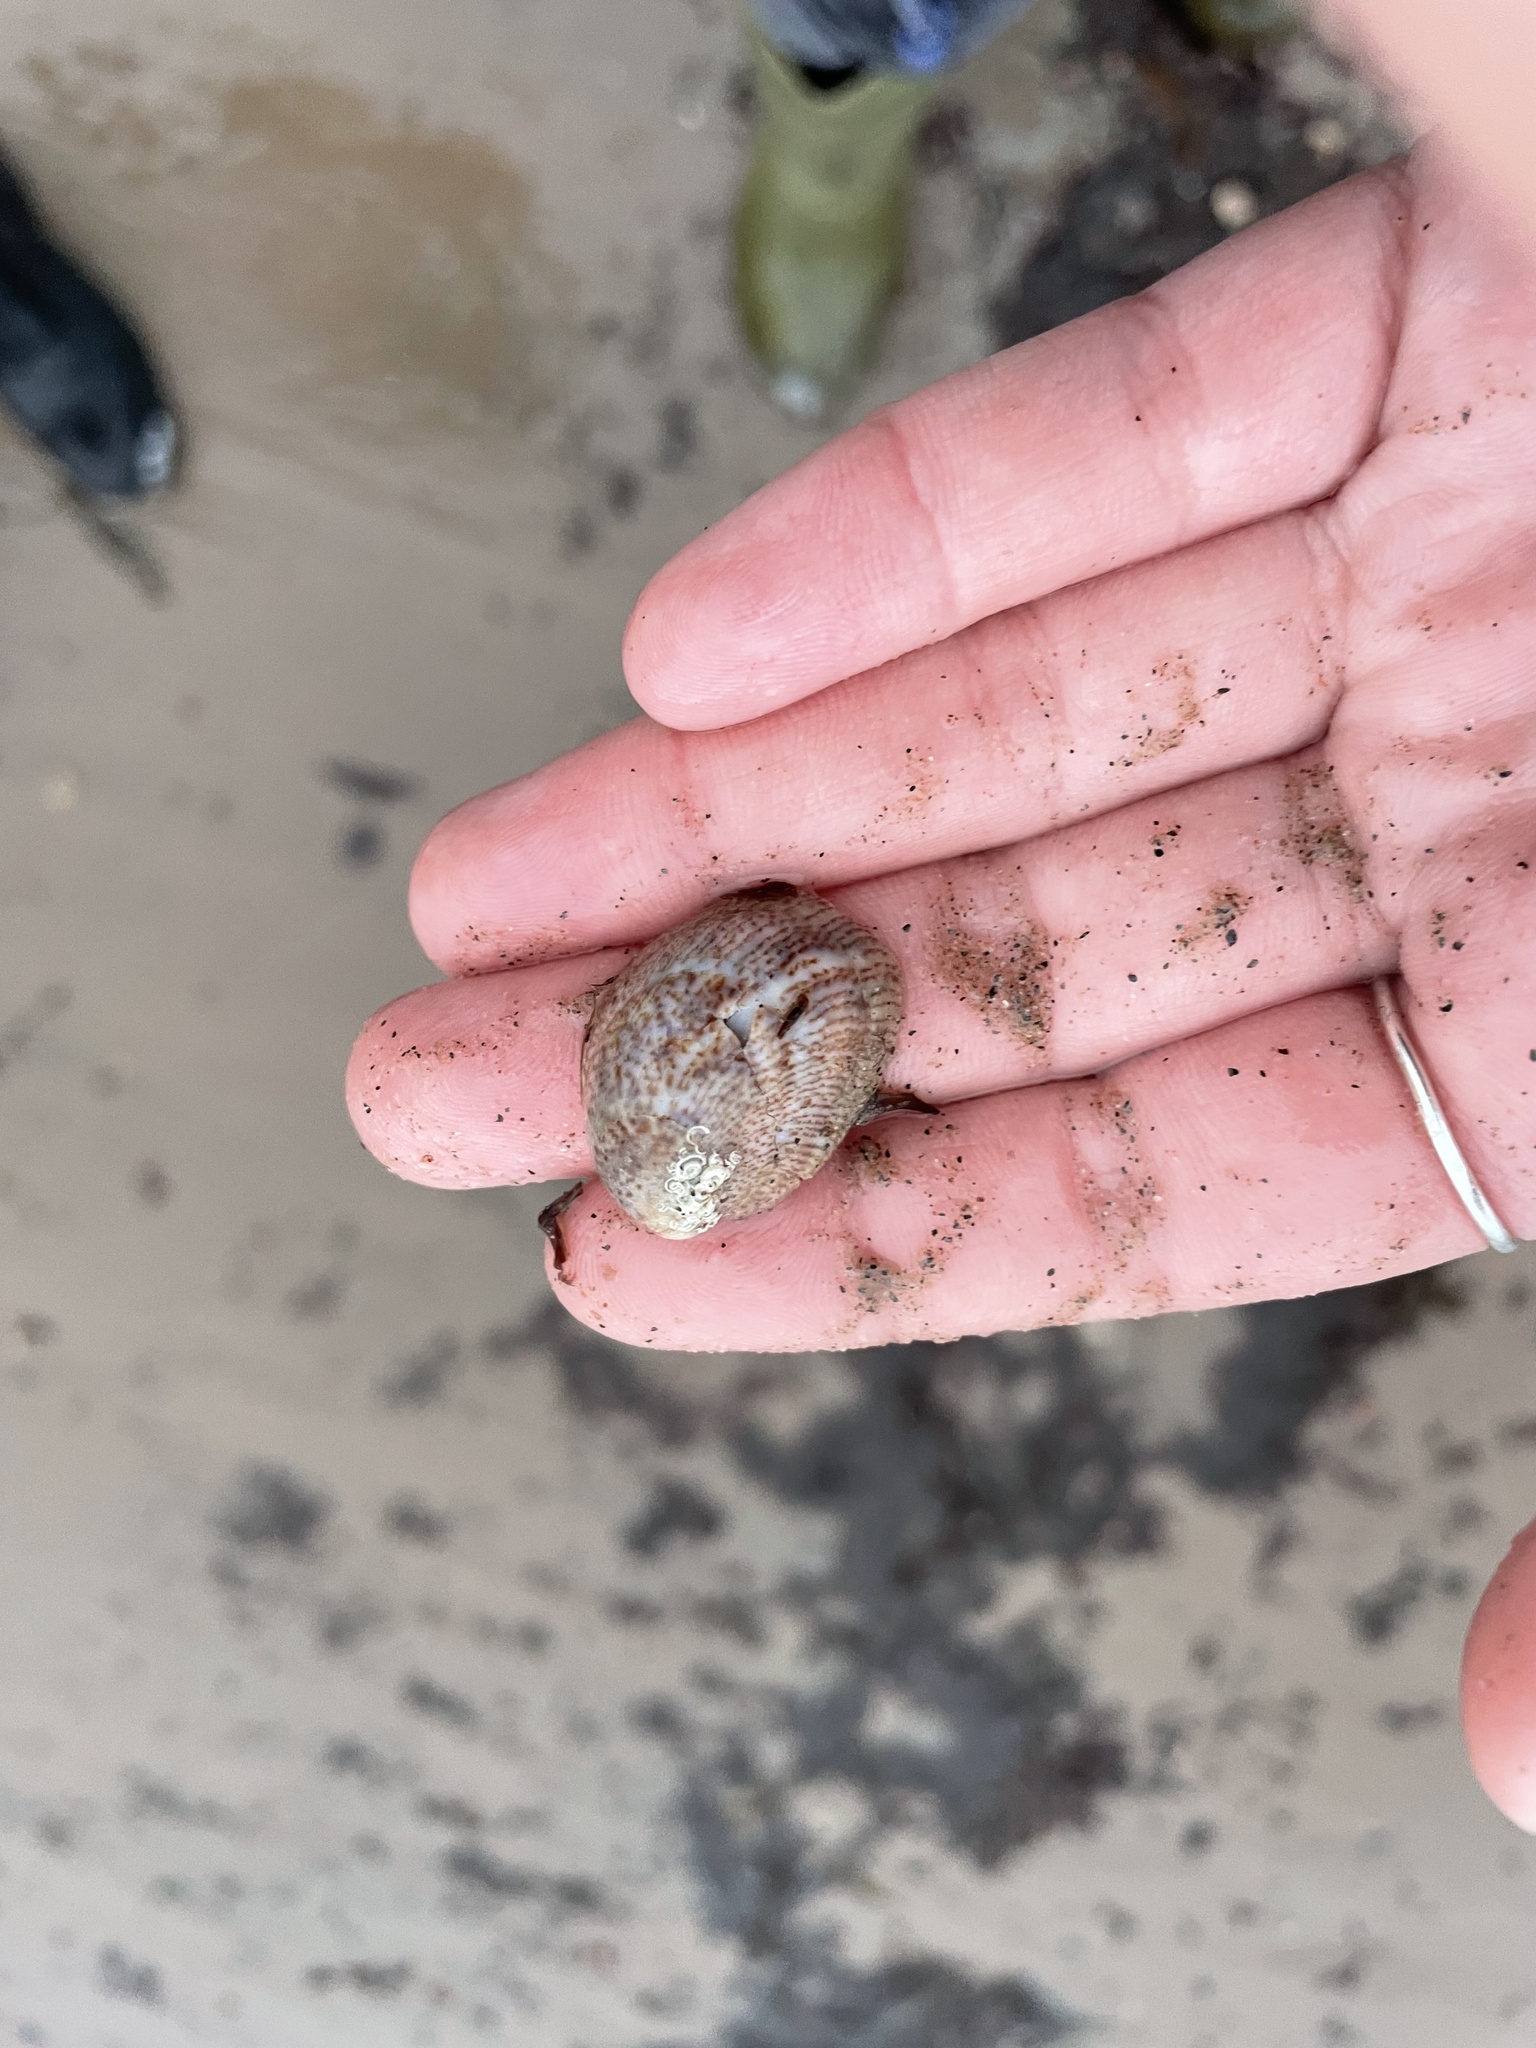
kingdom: Animalia
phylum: Mollusca
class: Gastropoda
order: Littorinimorpha
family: Calyptraeidae
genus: Crepidula
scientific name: Crepidula fornicata
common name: Slipper limpet
